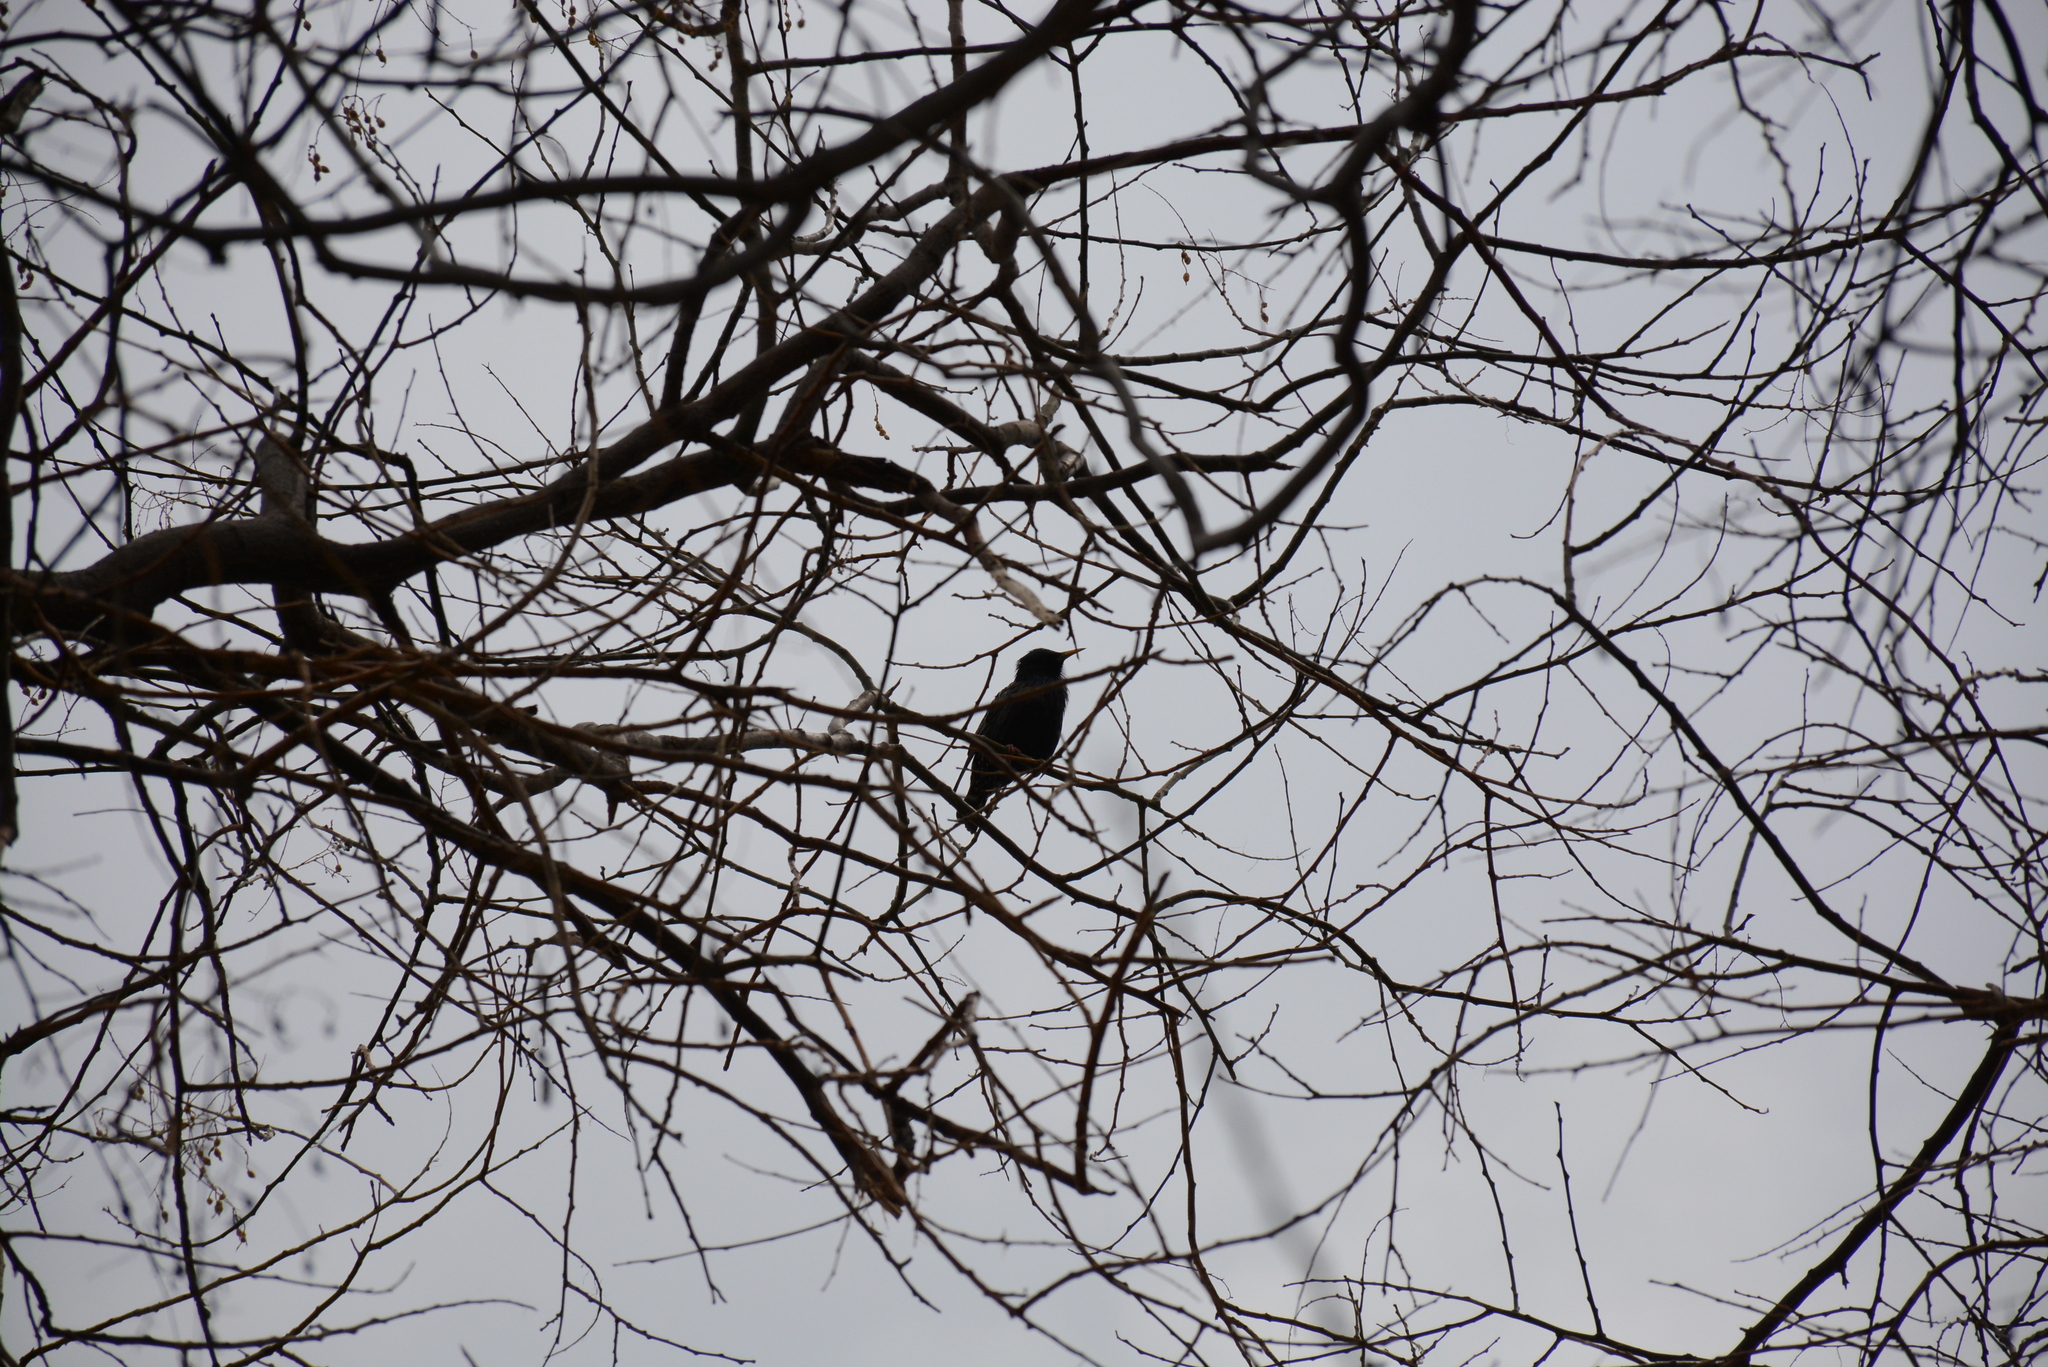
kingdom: Animalia
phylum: Chordata
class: Aves
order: Passeriformes
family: Sturnidae
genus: Sturnus
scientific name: Sturnus vulgaris
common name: Common starling
